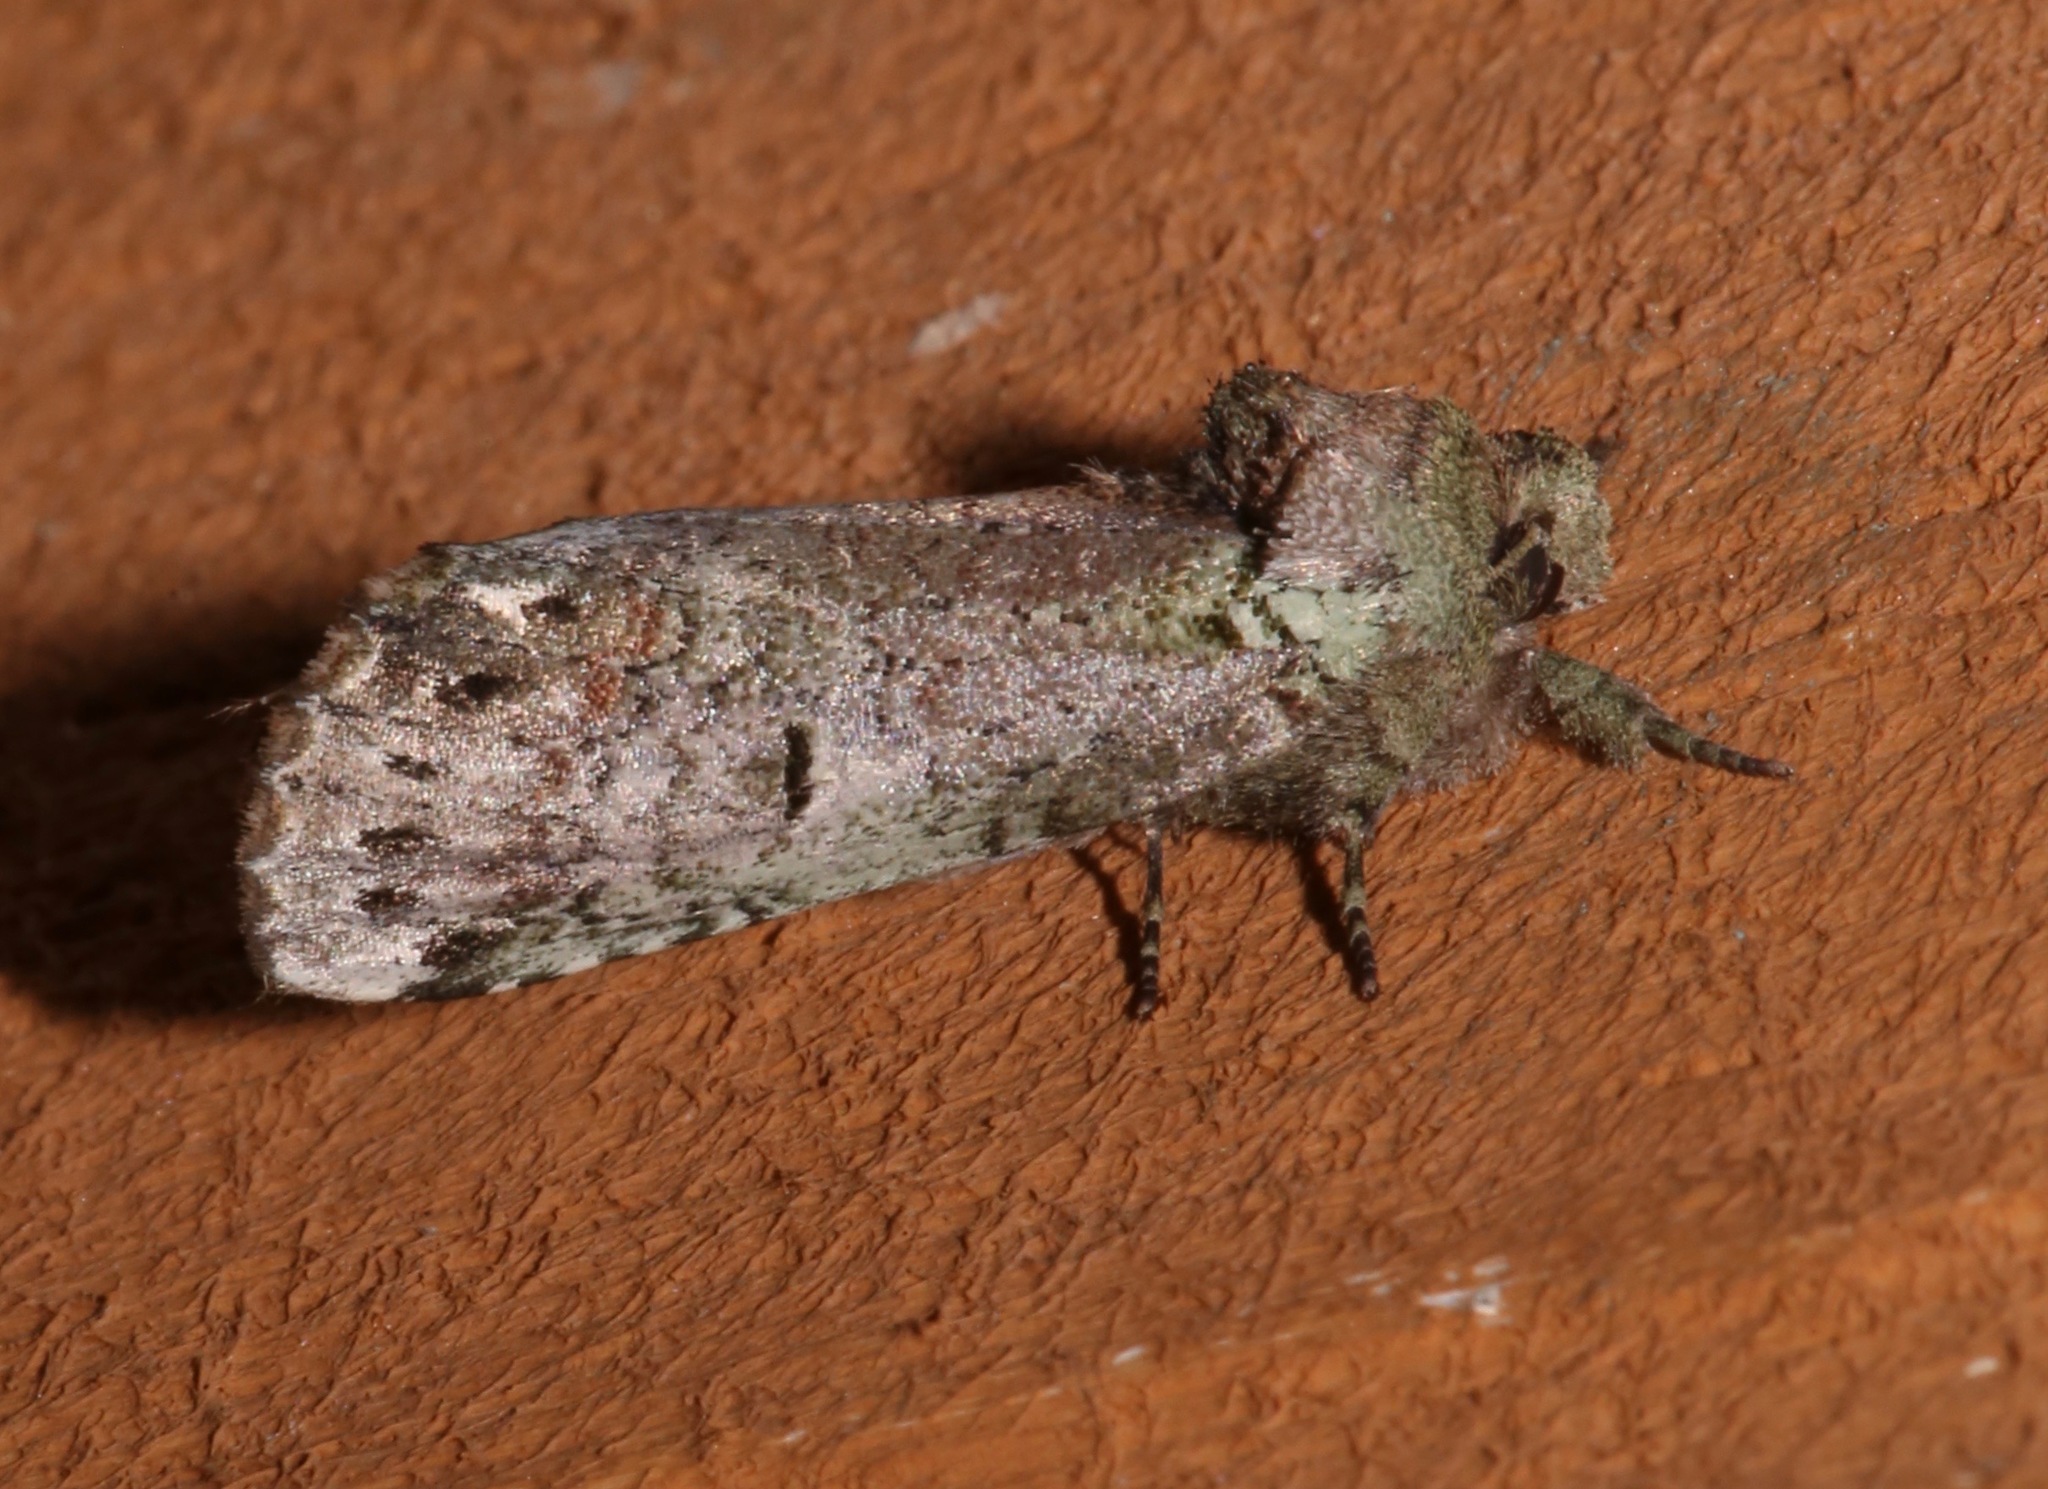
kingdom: Animalia
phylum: Arthropoda
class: Insecta
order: Lepidoptera
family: Notodontidae
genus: Schizura
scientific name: Schizura
